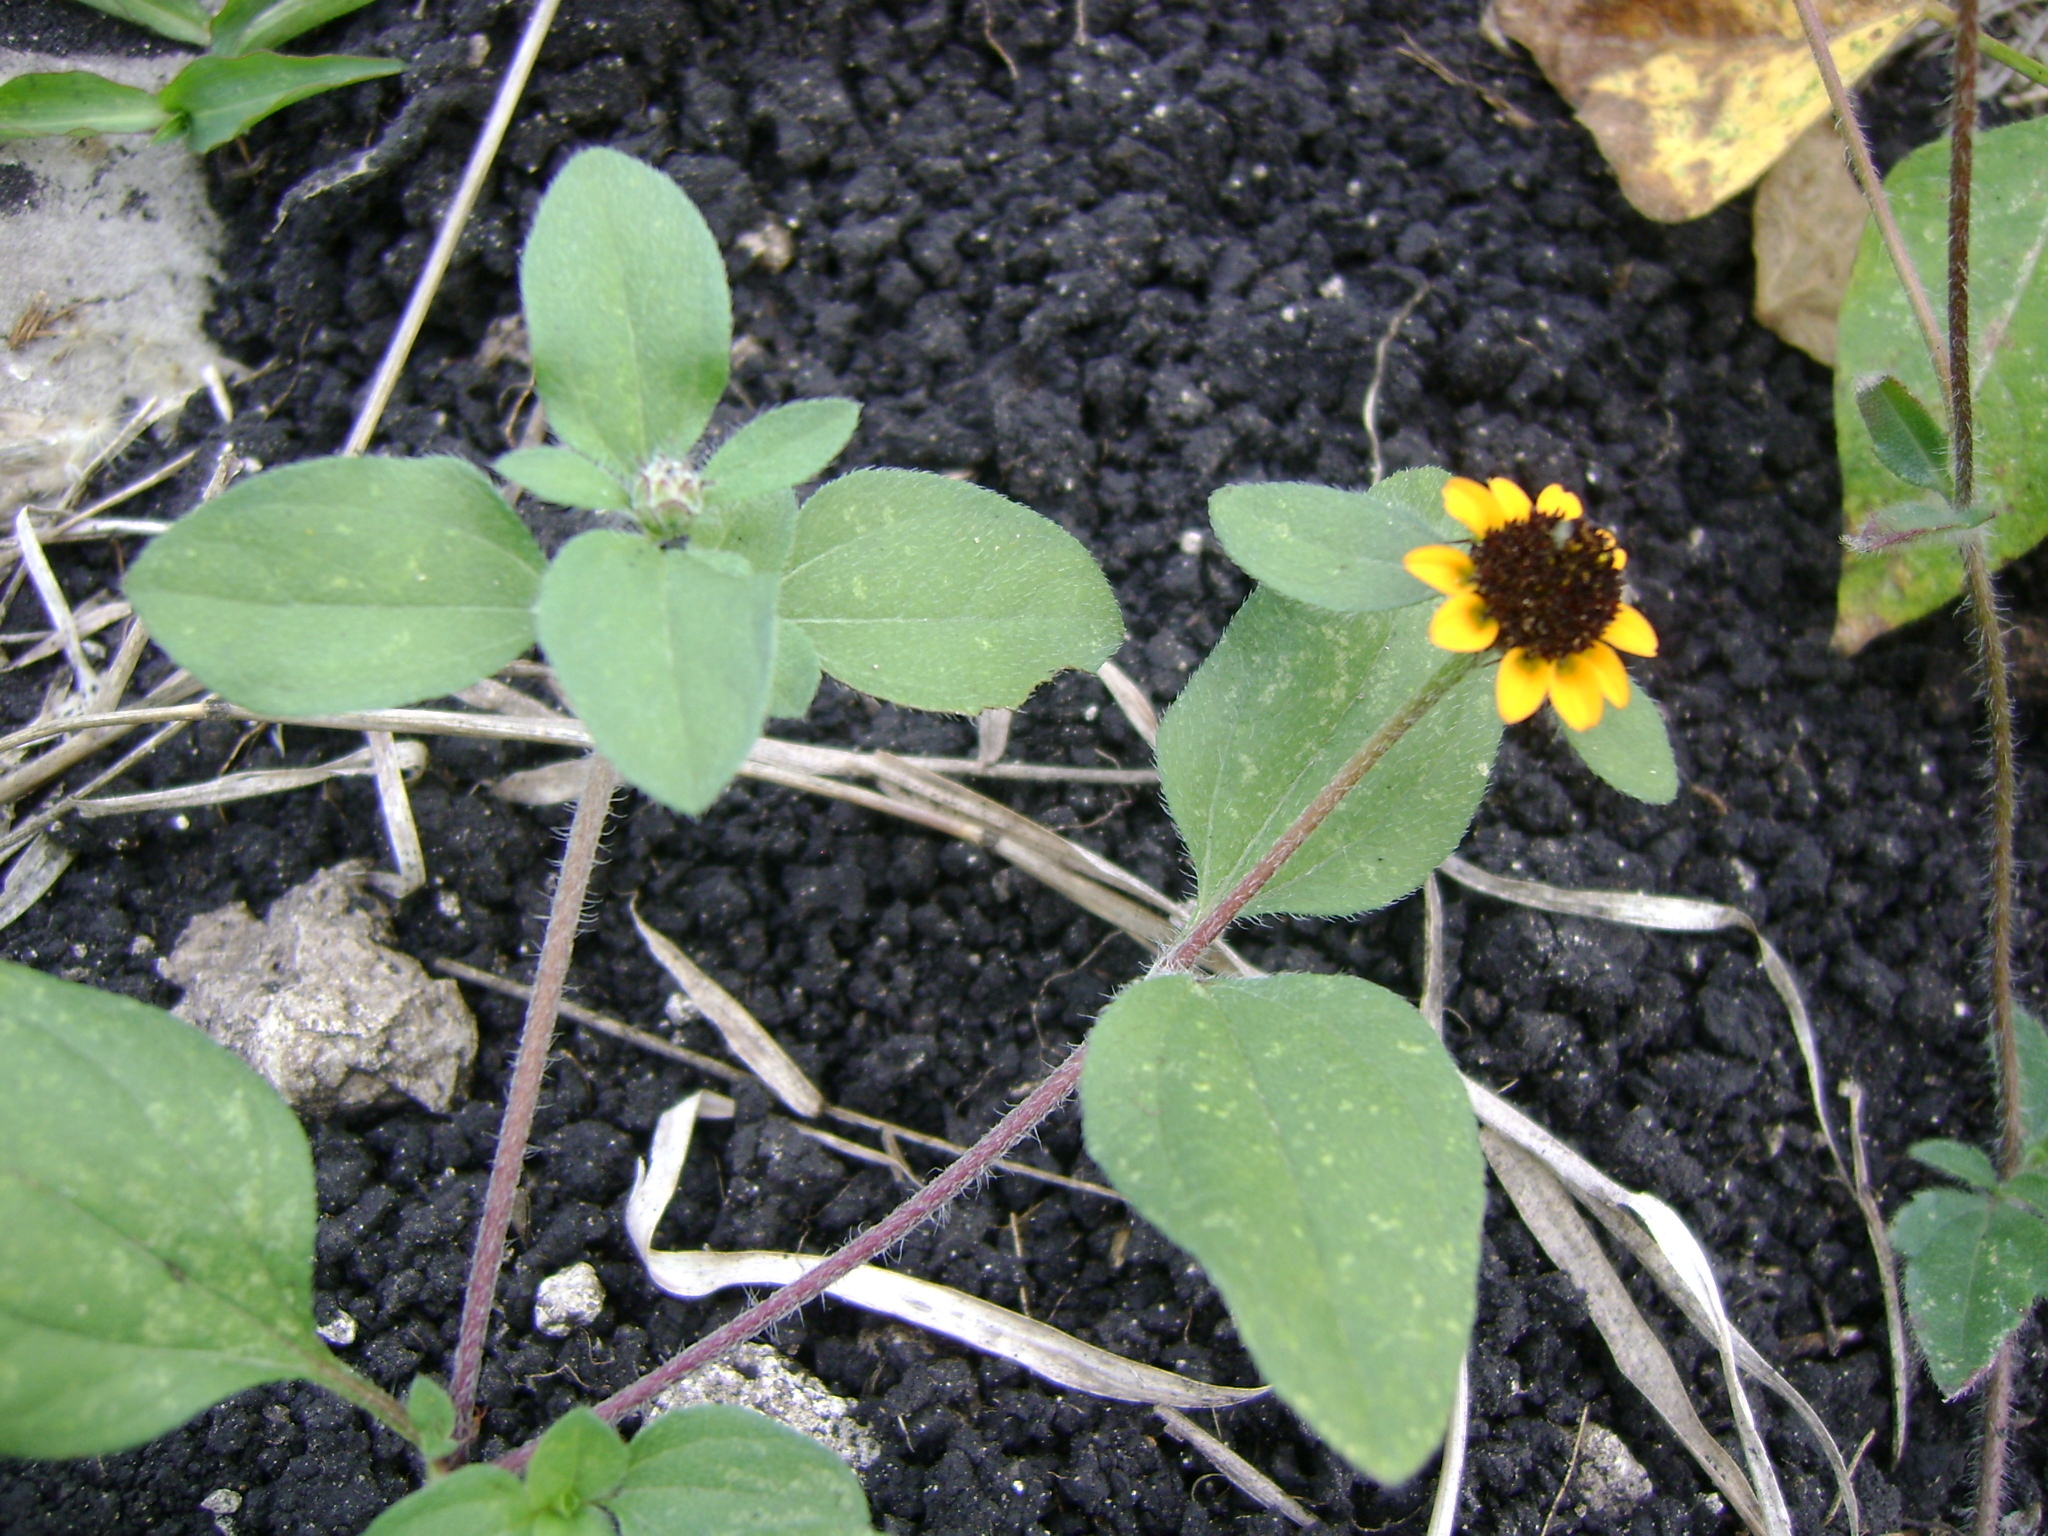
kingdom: Plantae
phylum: Tracheophyta
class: Magnoliopsida
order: Asterales
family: Asteraceae
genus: Sanvitalia
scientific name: Sanvitalia procumbens
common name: Mexican creeping zinnia
